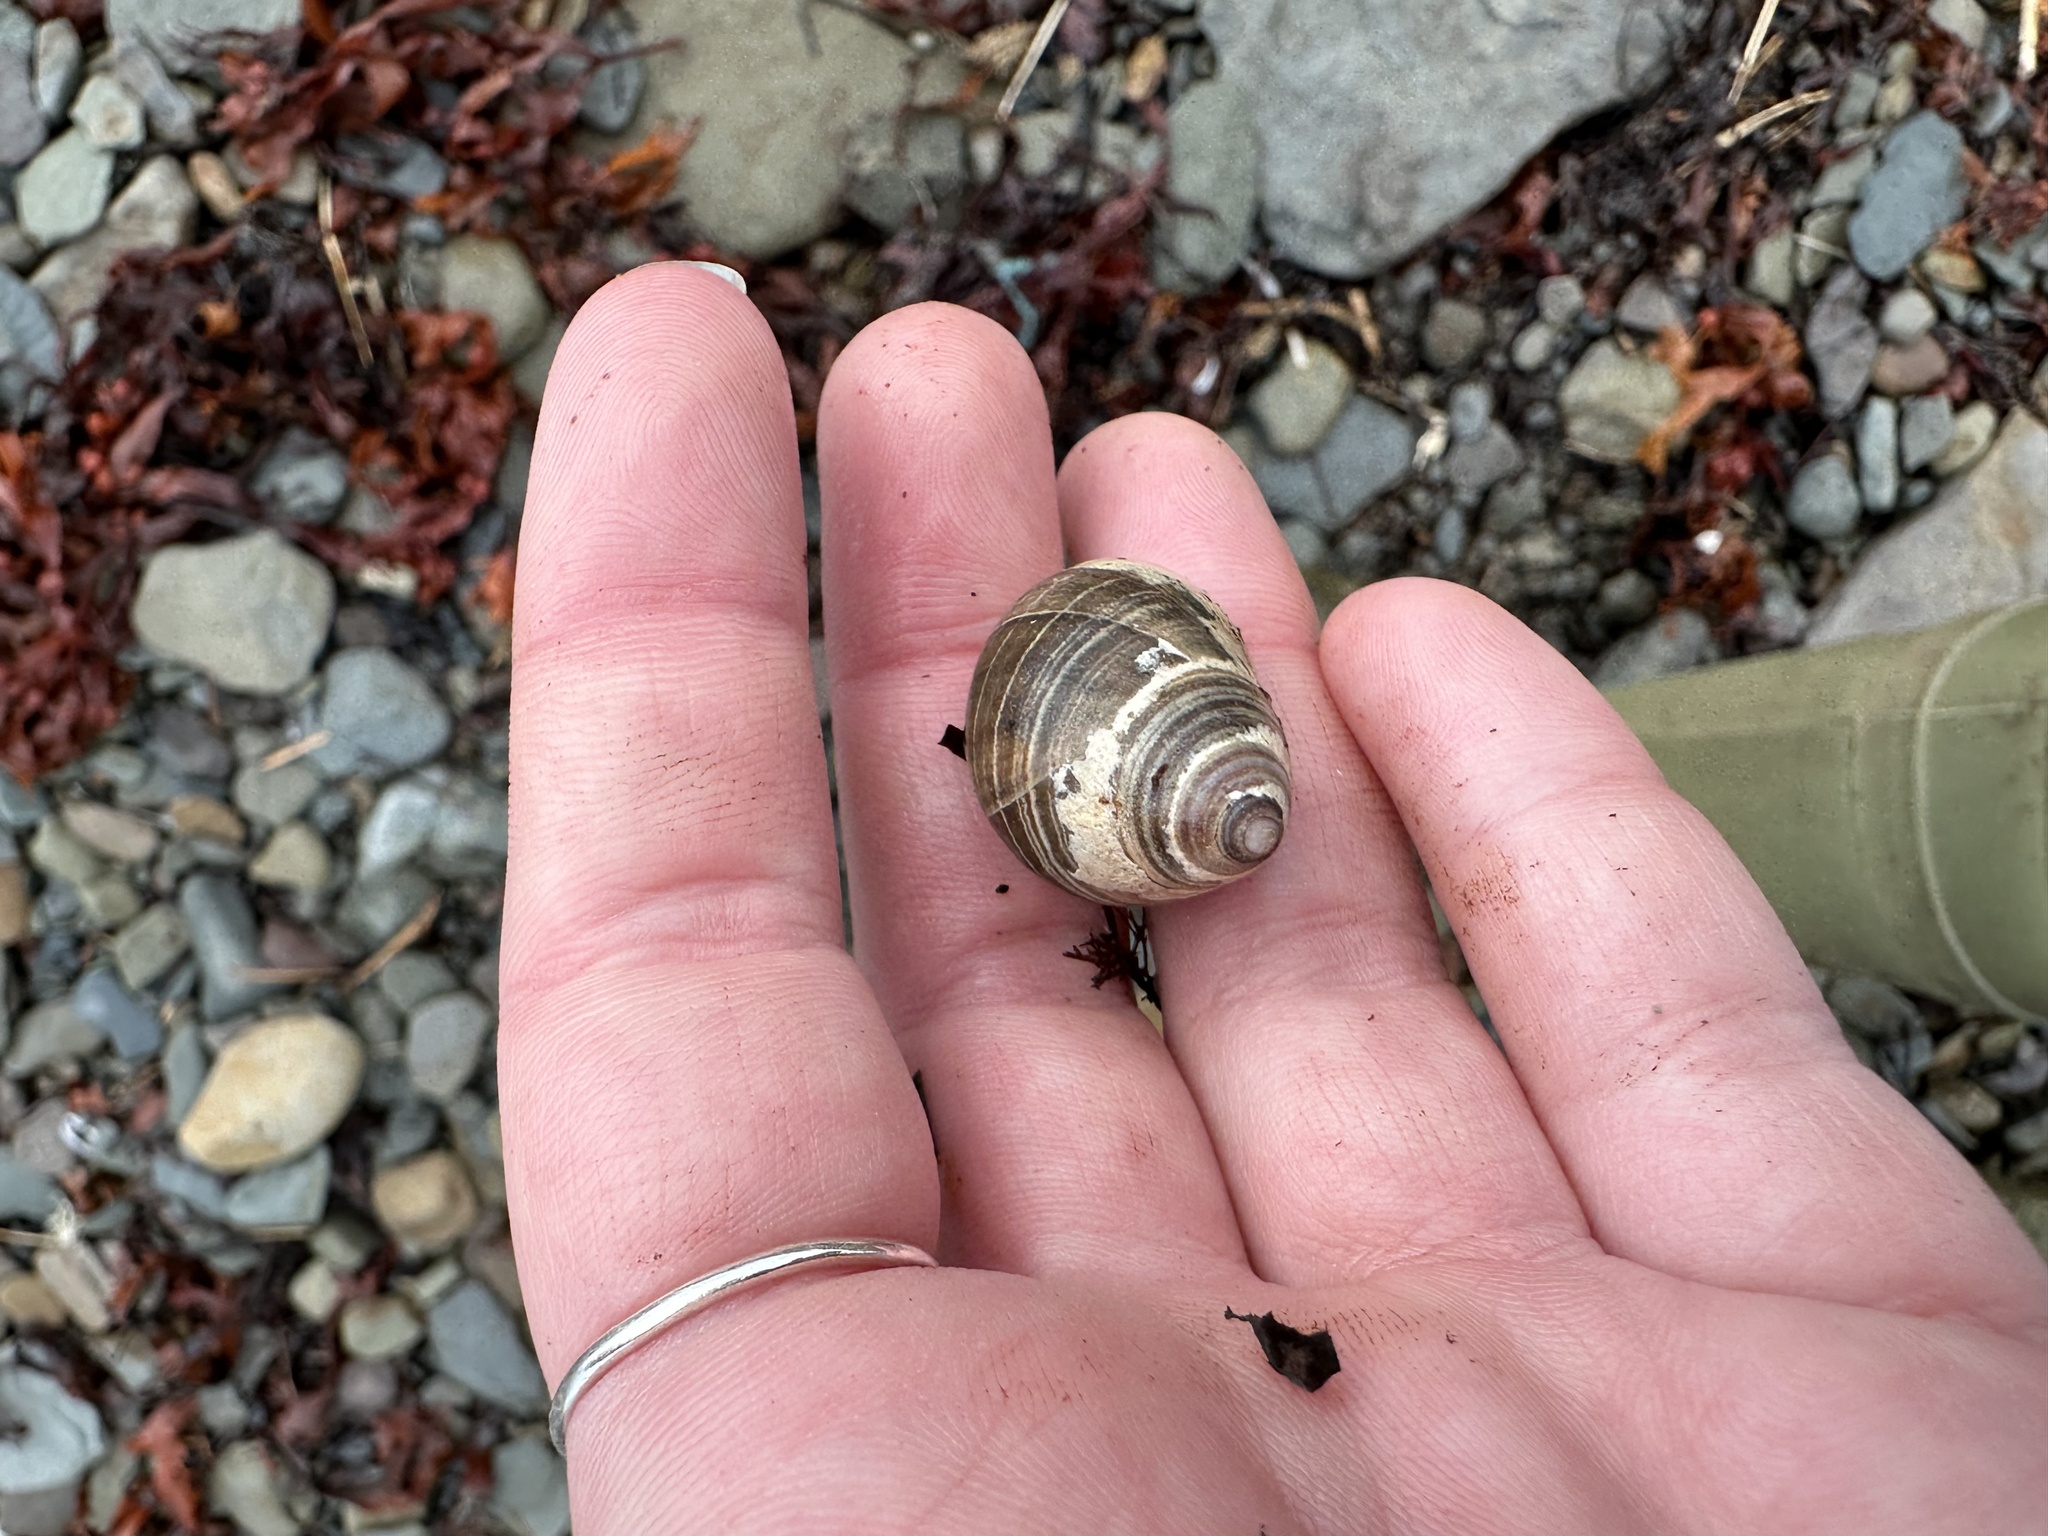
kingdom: Animalia
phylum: Mollusca
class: Gastropoda
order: Littorinimorpha
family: Littorinidae
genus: Littorina
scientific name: Littorina littorea
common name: Common periwinkle
